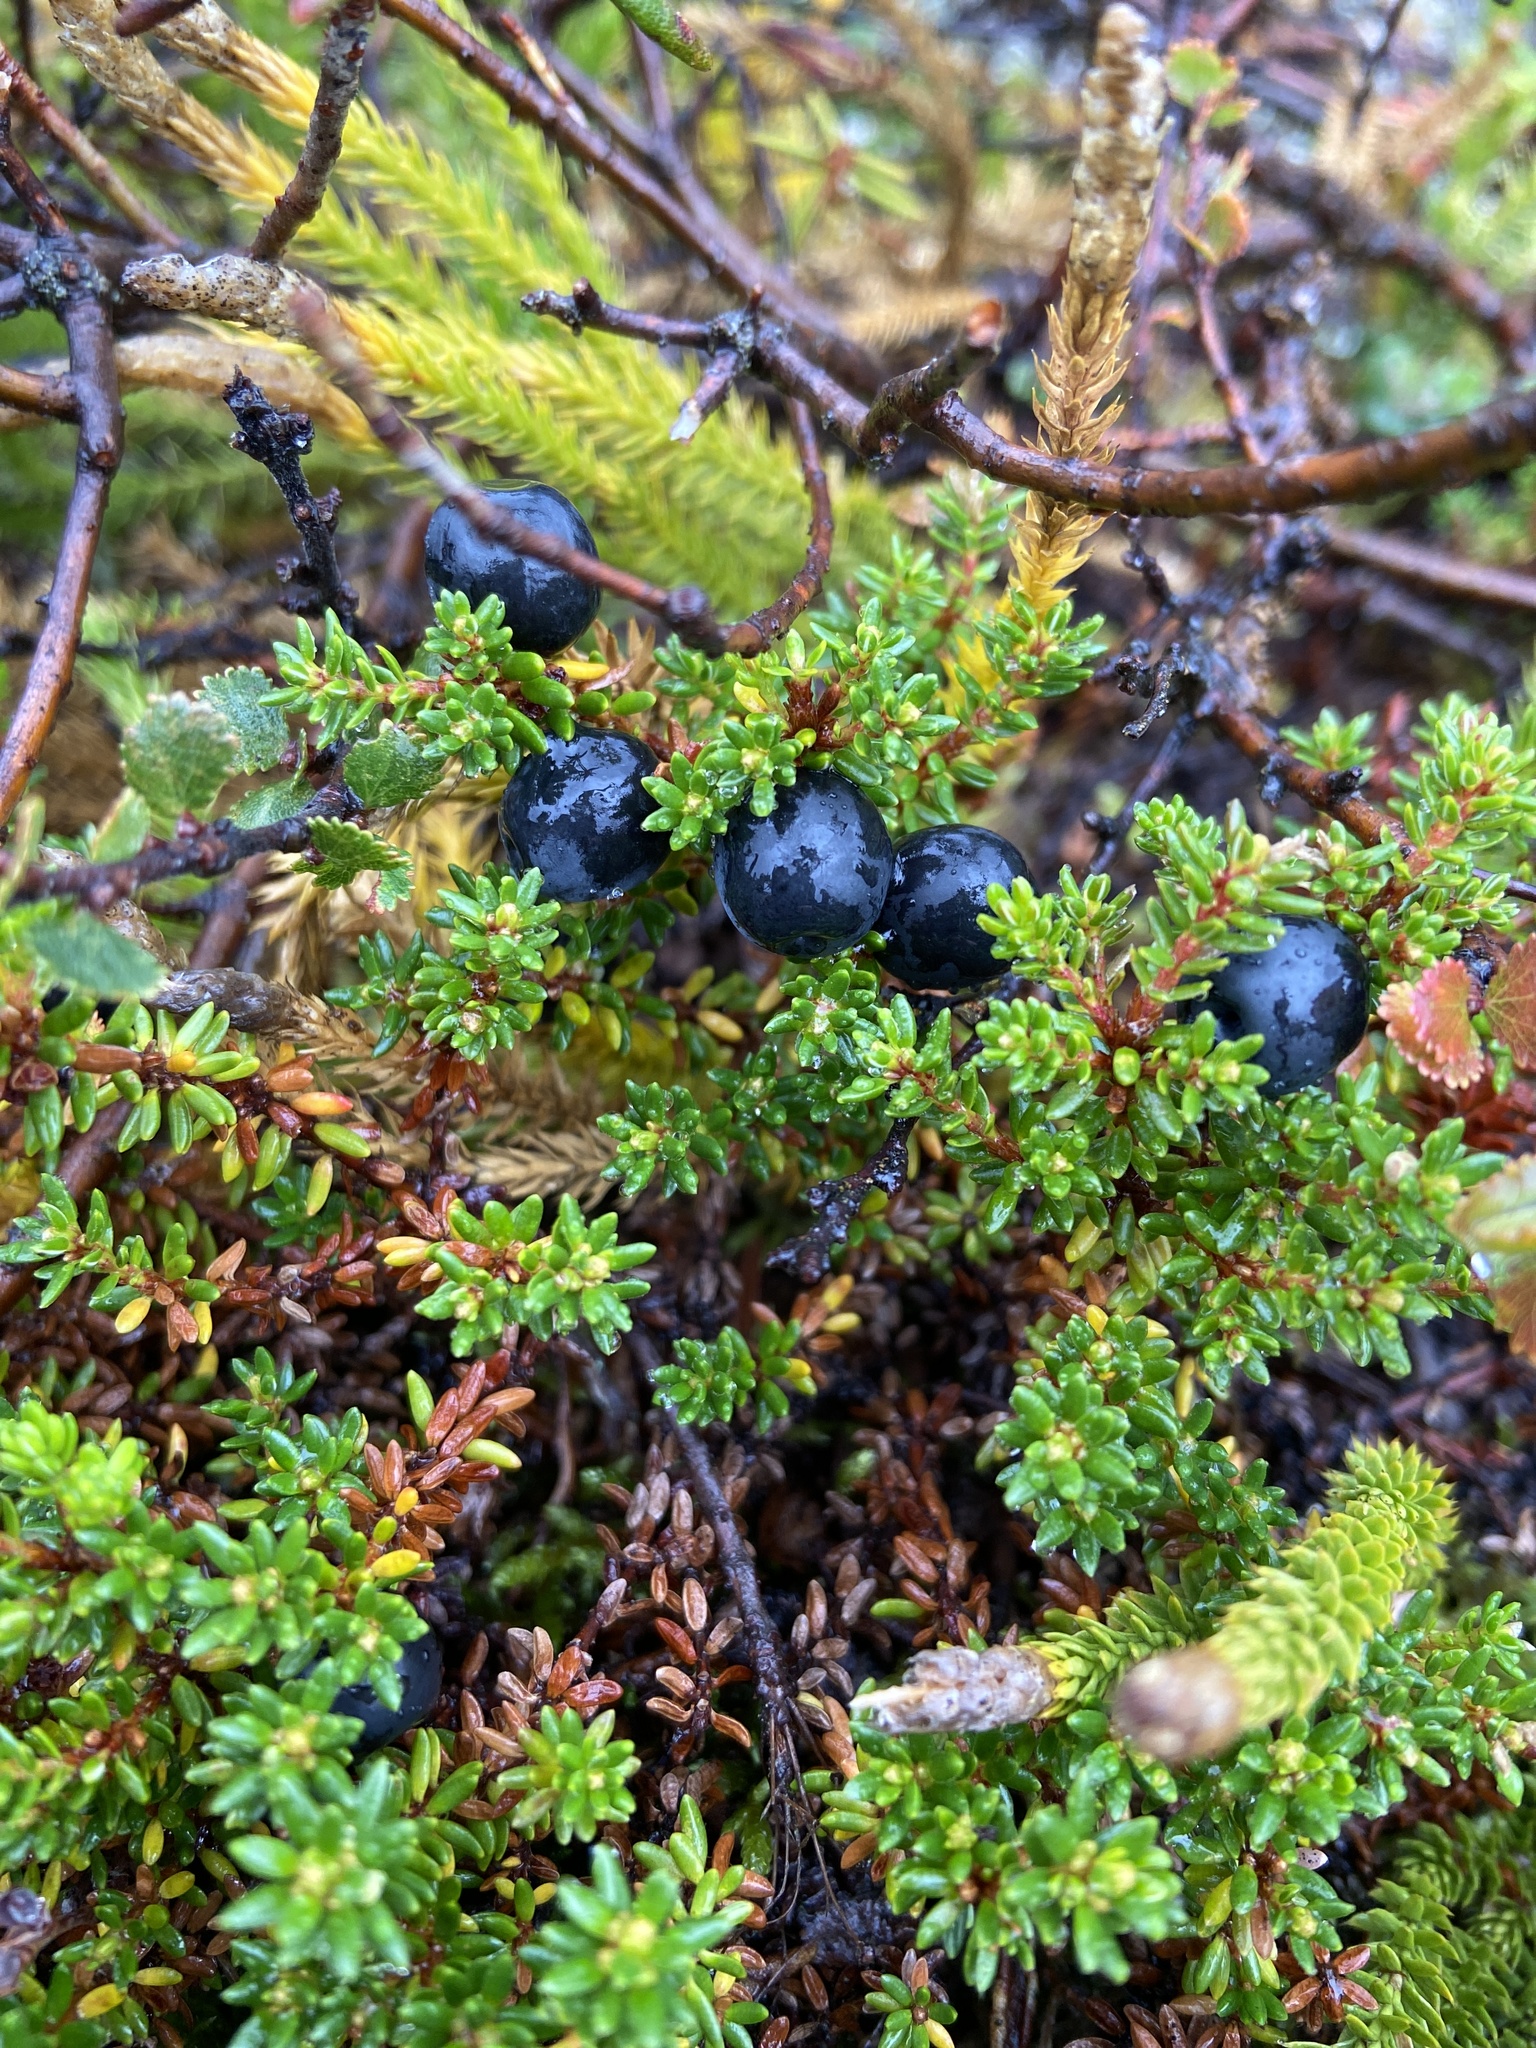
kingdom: Plantae
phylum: Tracheophyta
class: Magnoliopsida
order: Ericales
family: Ericaceae
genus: Empetrum
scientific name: Empetrum hermaphroditum
